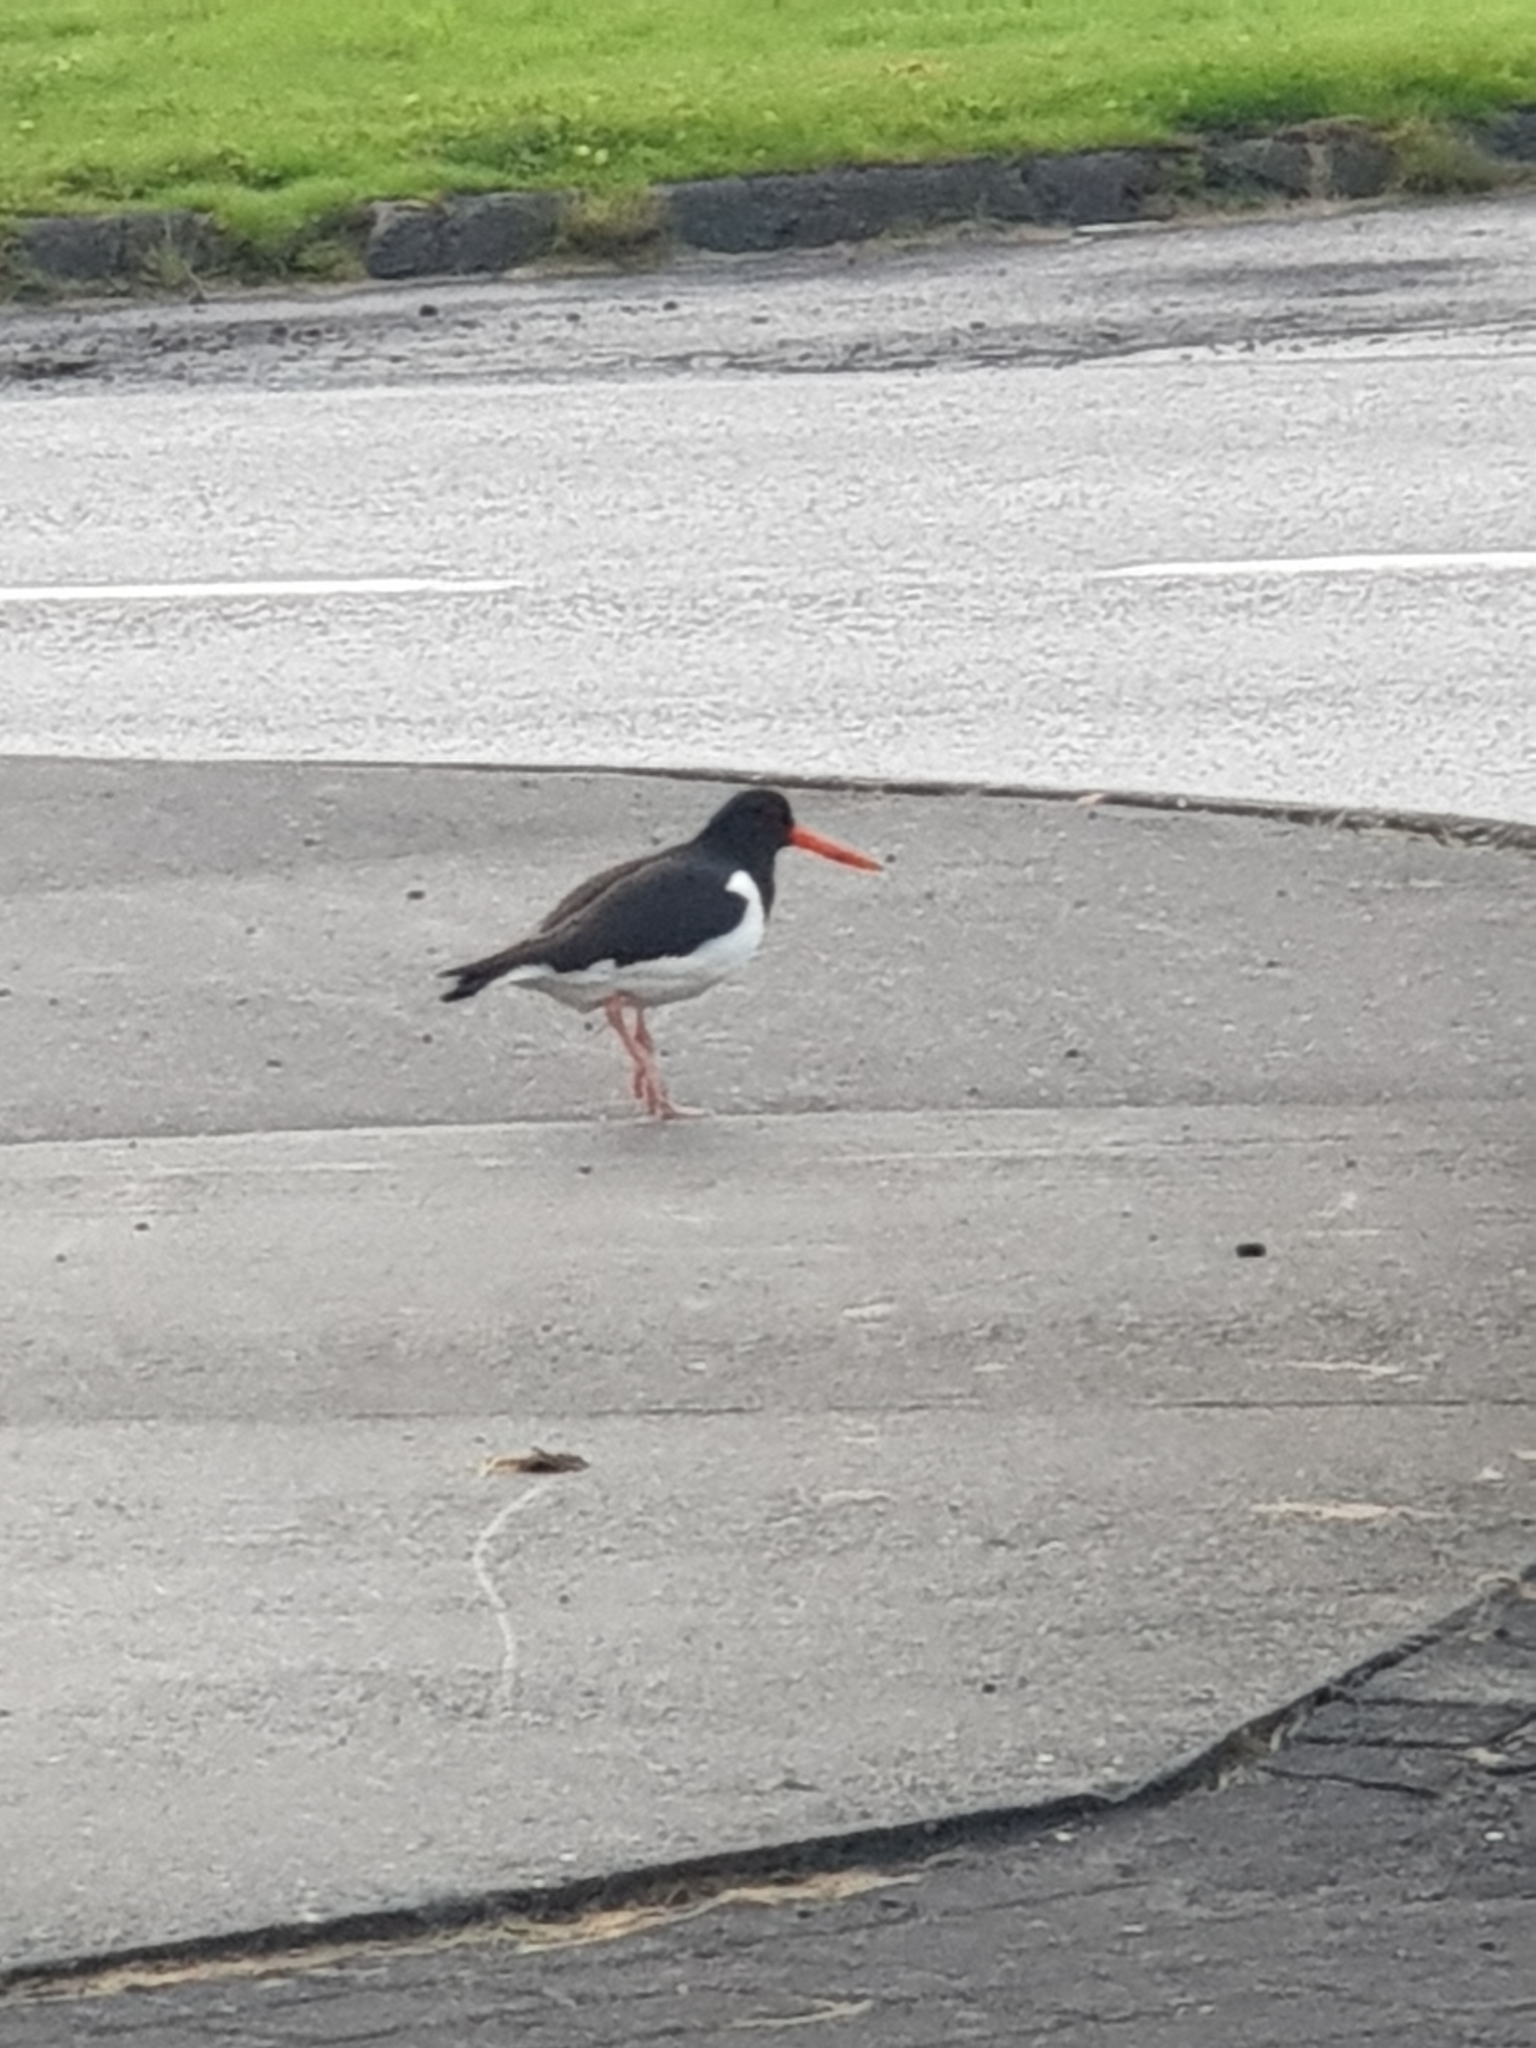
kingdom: Animalia
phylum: Chordata
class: Aves
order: Charadriiformes
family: Haematopodidae
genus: Haematopus
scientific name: Haematopus ostralegus
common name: Eurasian oystercatcher
